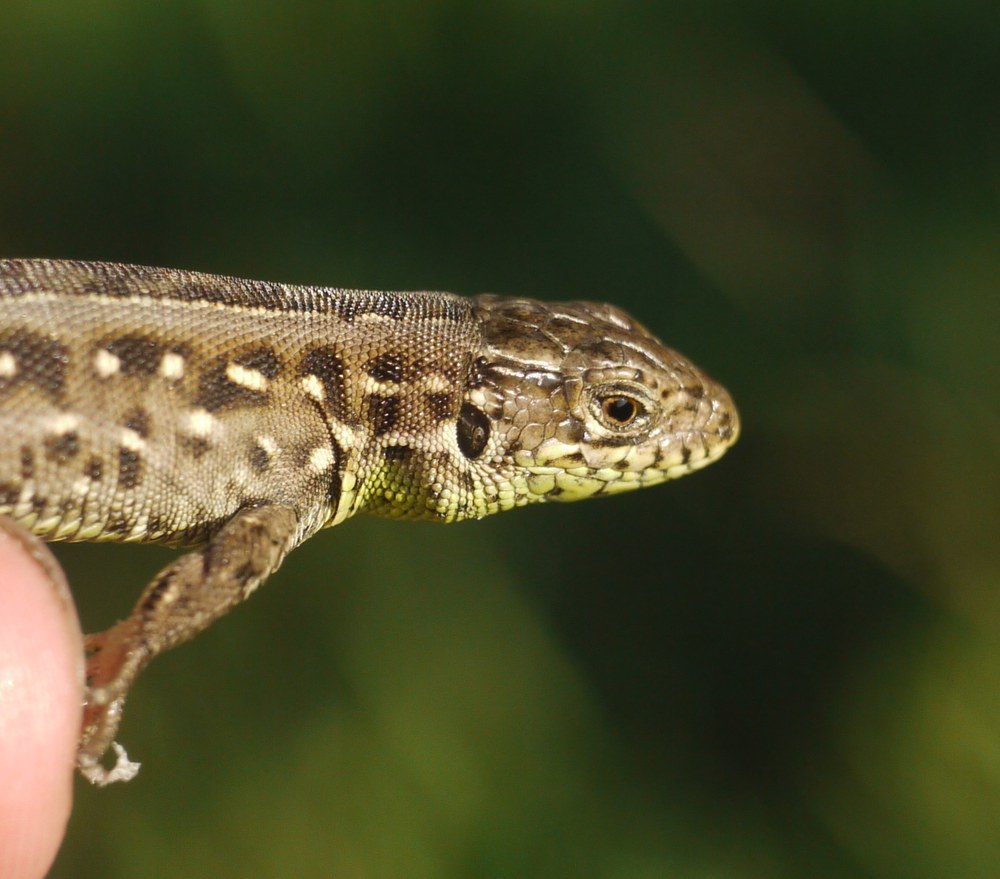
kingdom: Animalia
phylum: Chordata
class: Squamata
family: Lacertidae
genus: Lacerta
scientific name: Lacerta agilis
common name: Sand lizard
